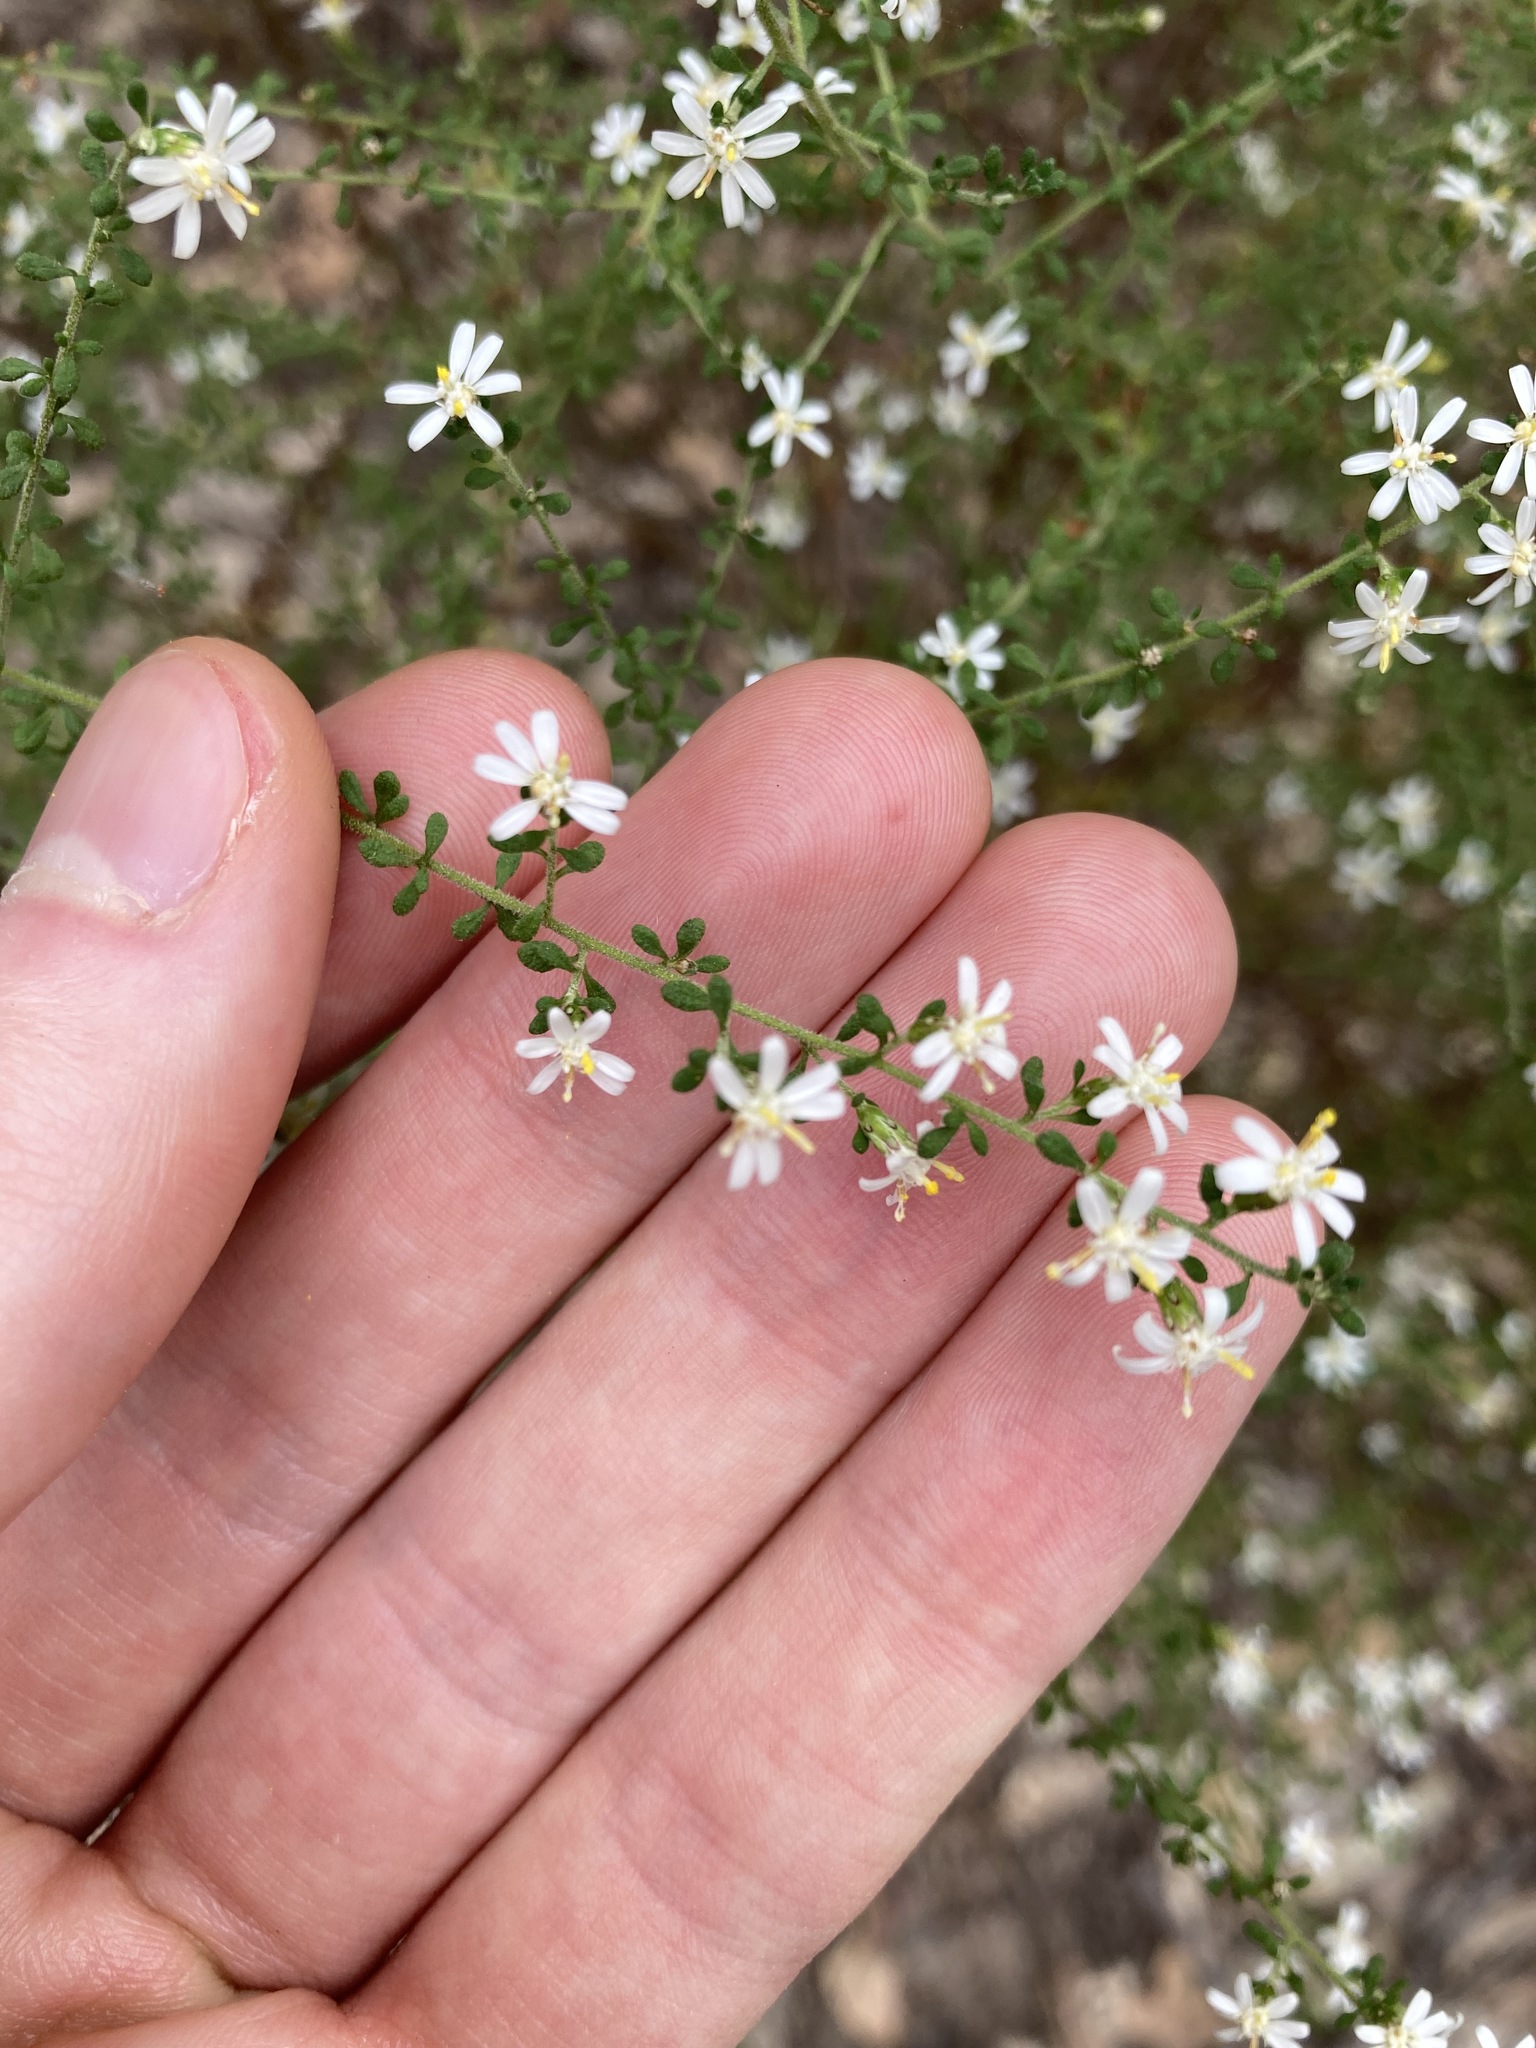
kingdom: Plantae
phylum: Tracheophyta
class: Magnoliopsida
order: Asterales
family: Asteraceae
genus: Olearia
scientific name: Olearia microphylla
